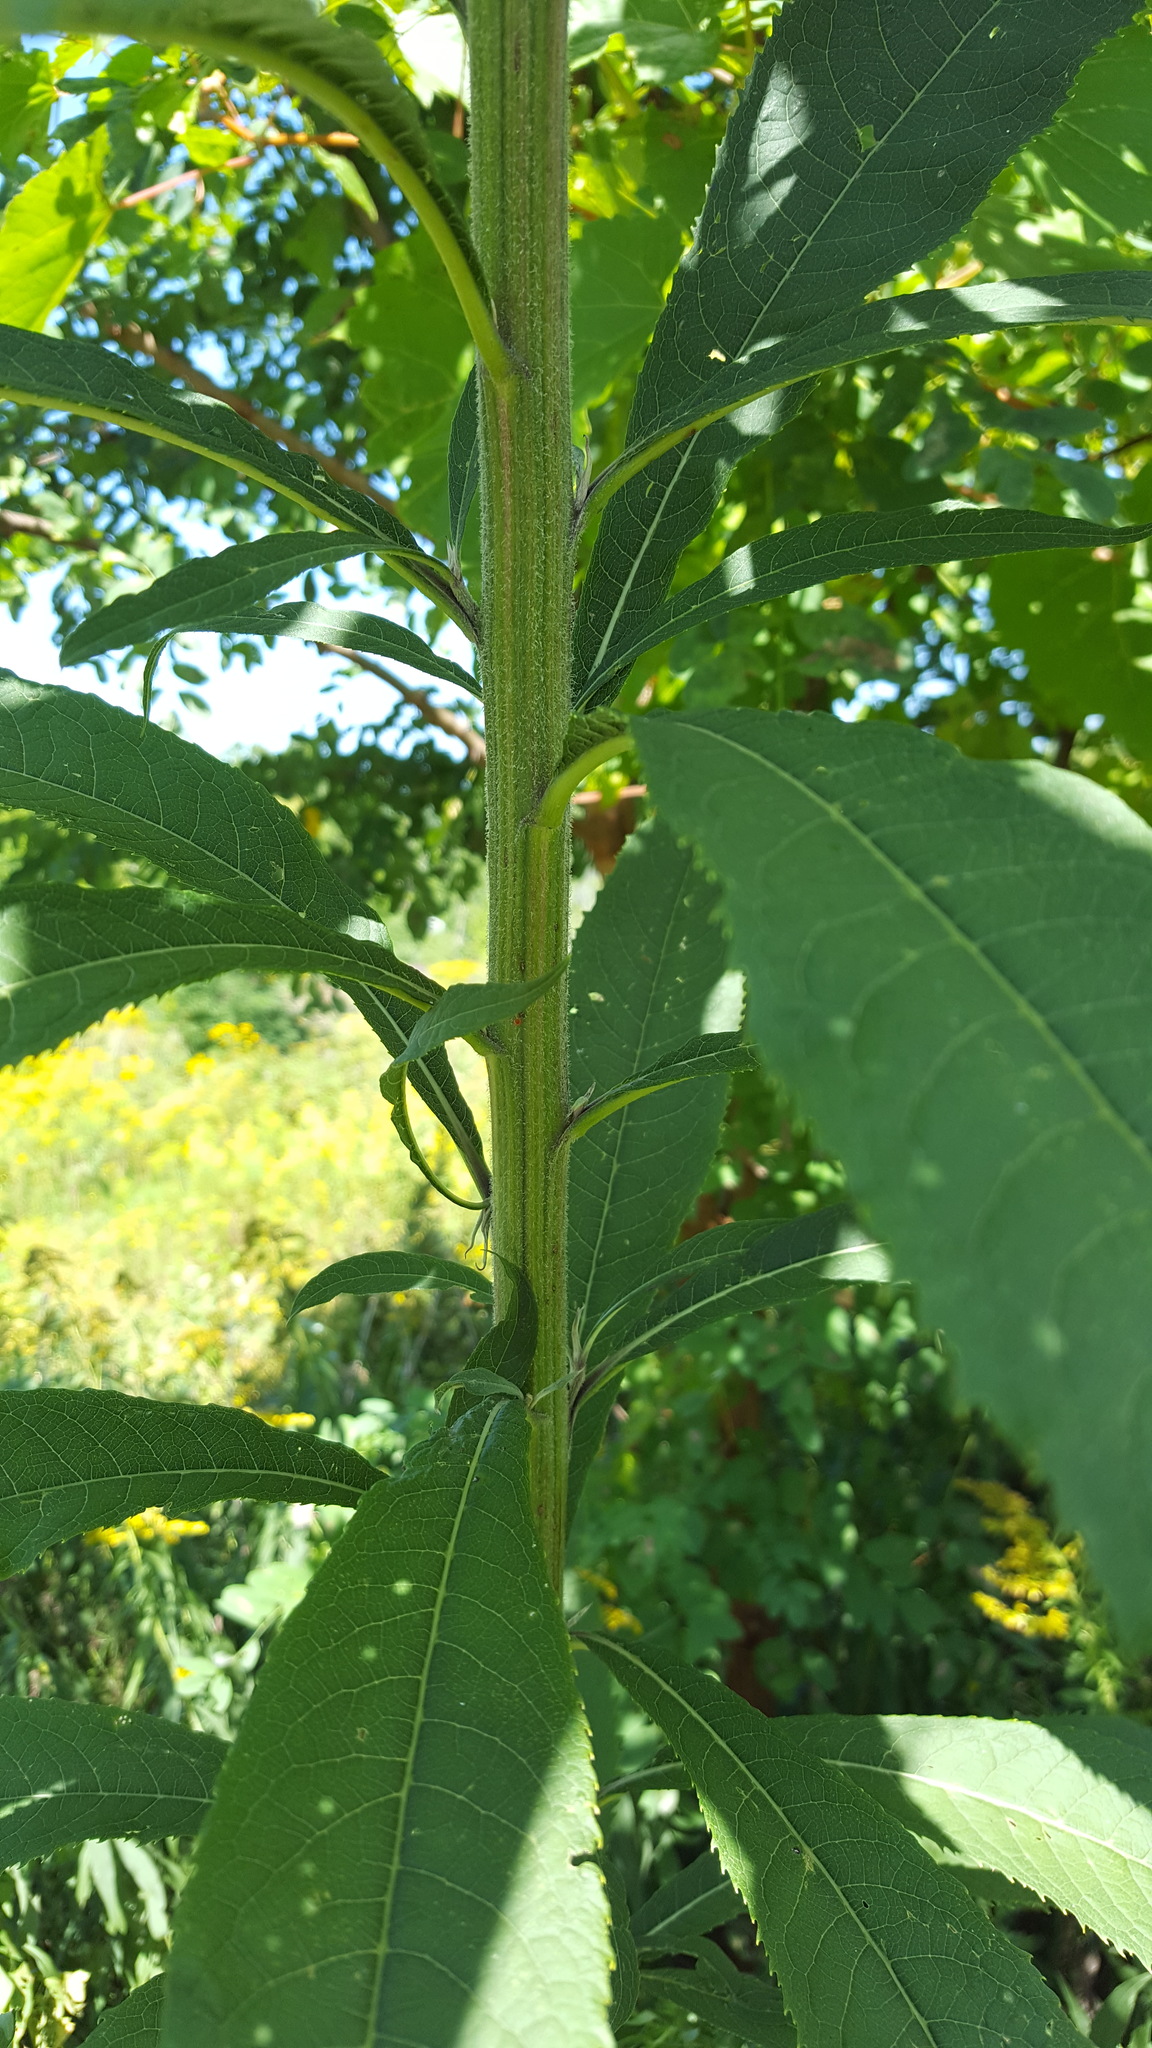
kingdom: Plantae
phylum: Tracheophyta
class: Magnoliopsida
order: Asterales
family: Asteraceae
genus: Vernonia
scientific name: Vernonia gigantea
